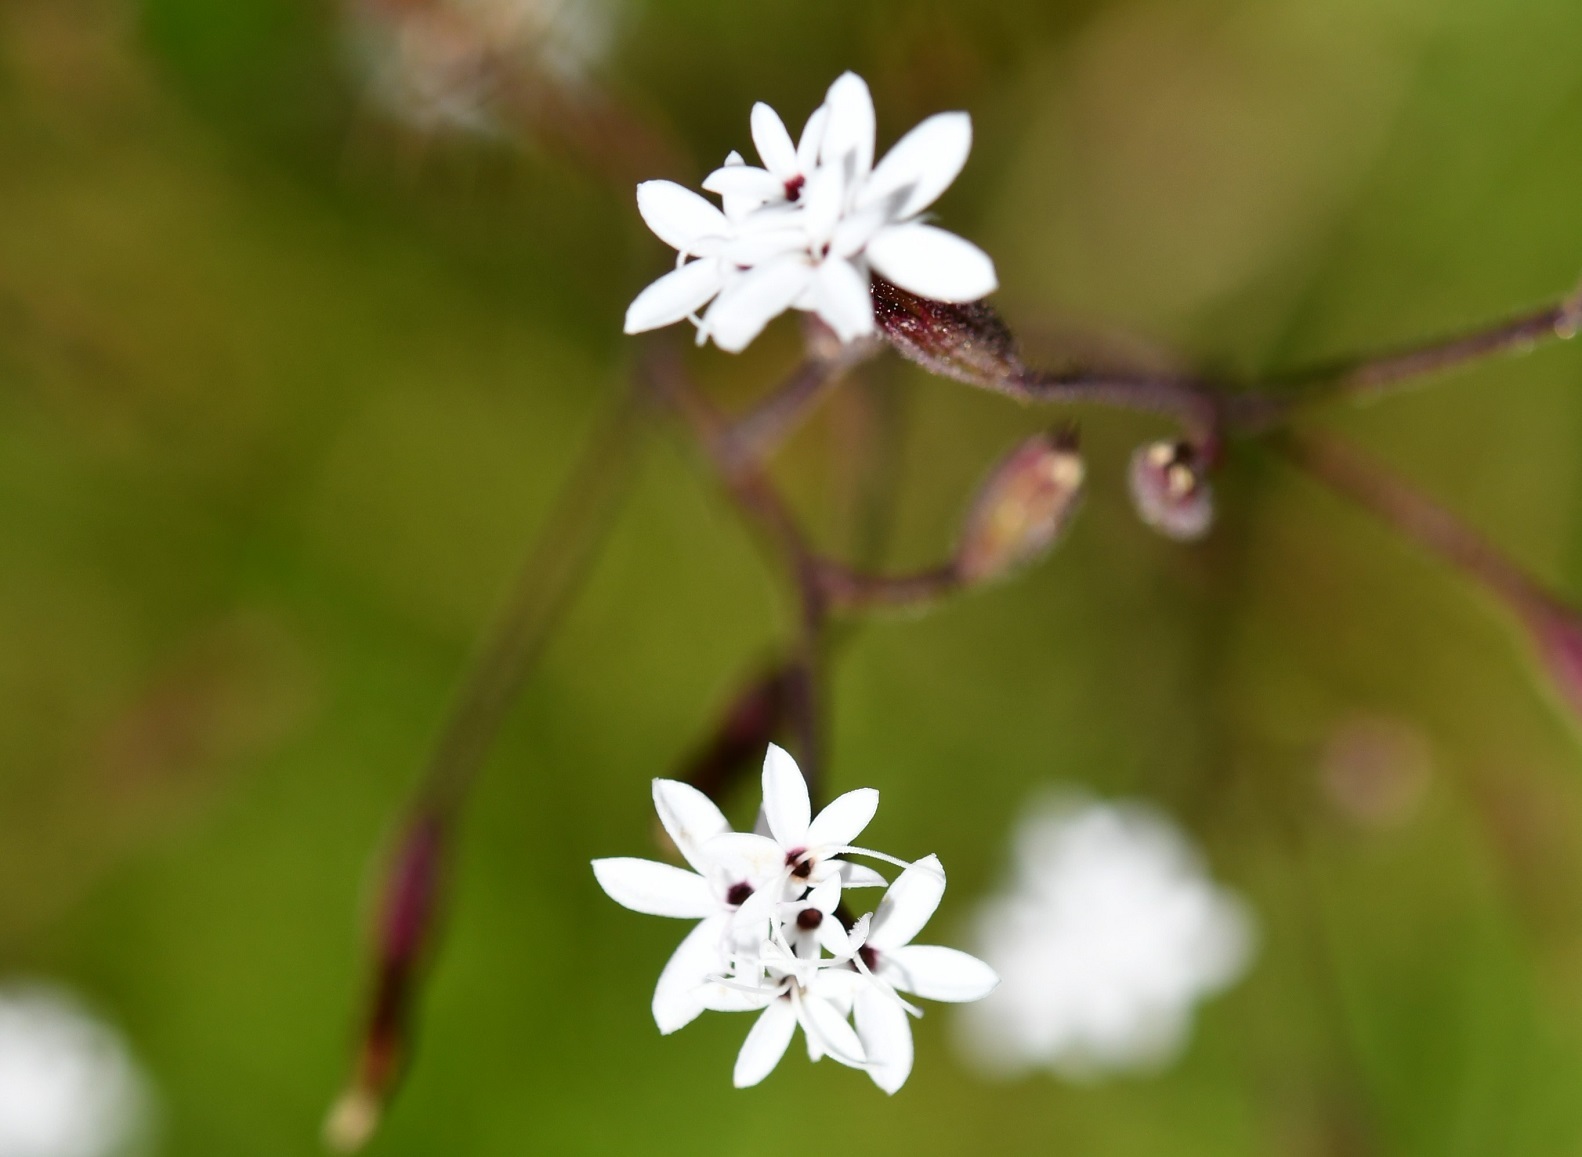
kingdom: Plantae
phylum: Tracheophyta
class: Magnoliopsida
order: Asterales
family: Asteraceae
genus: Stevia
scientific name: Stevia elatior
